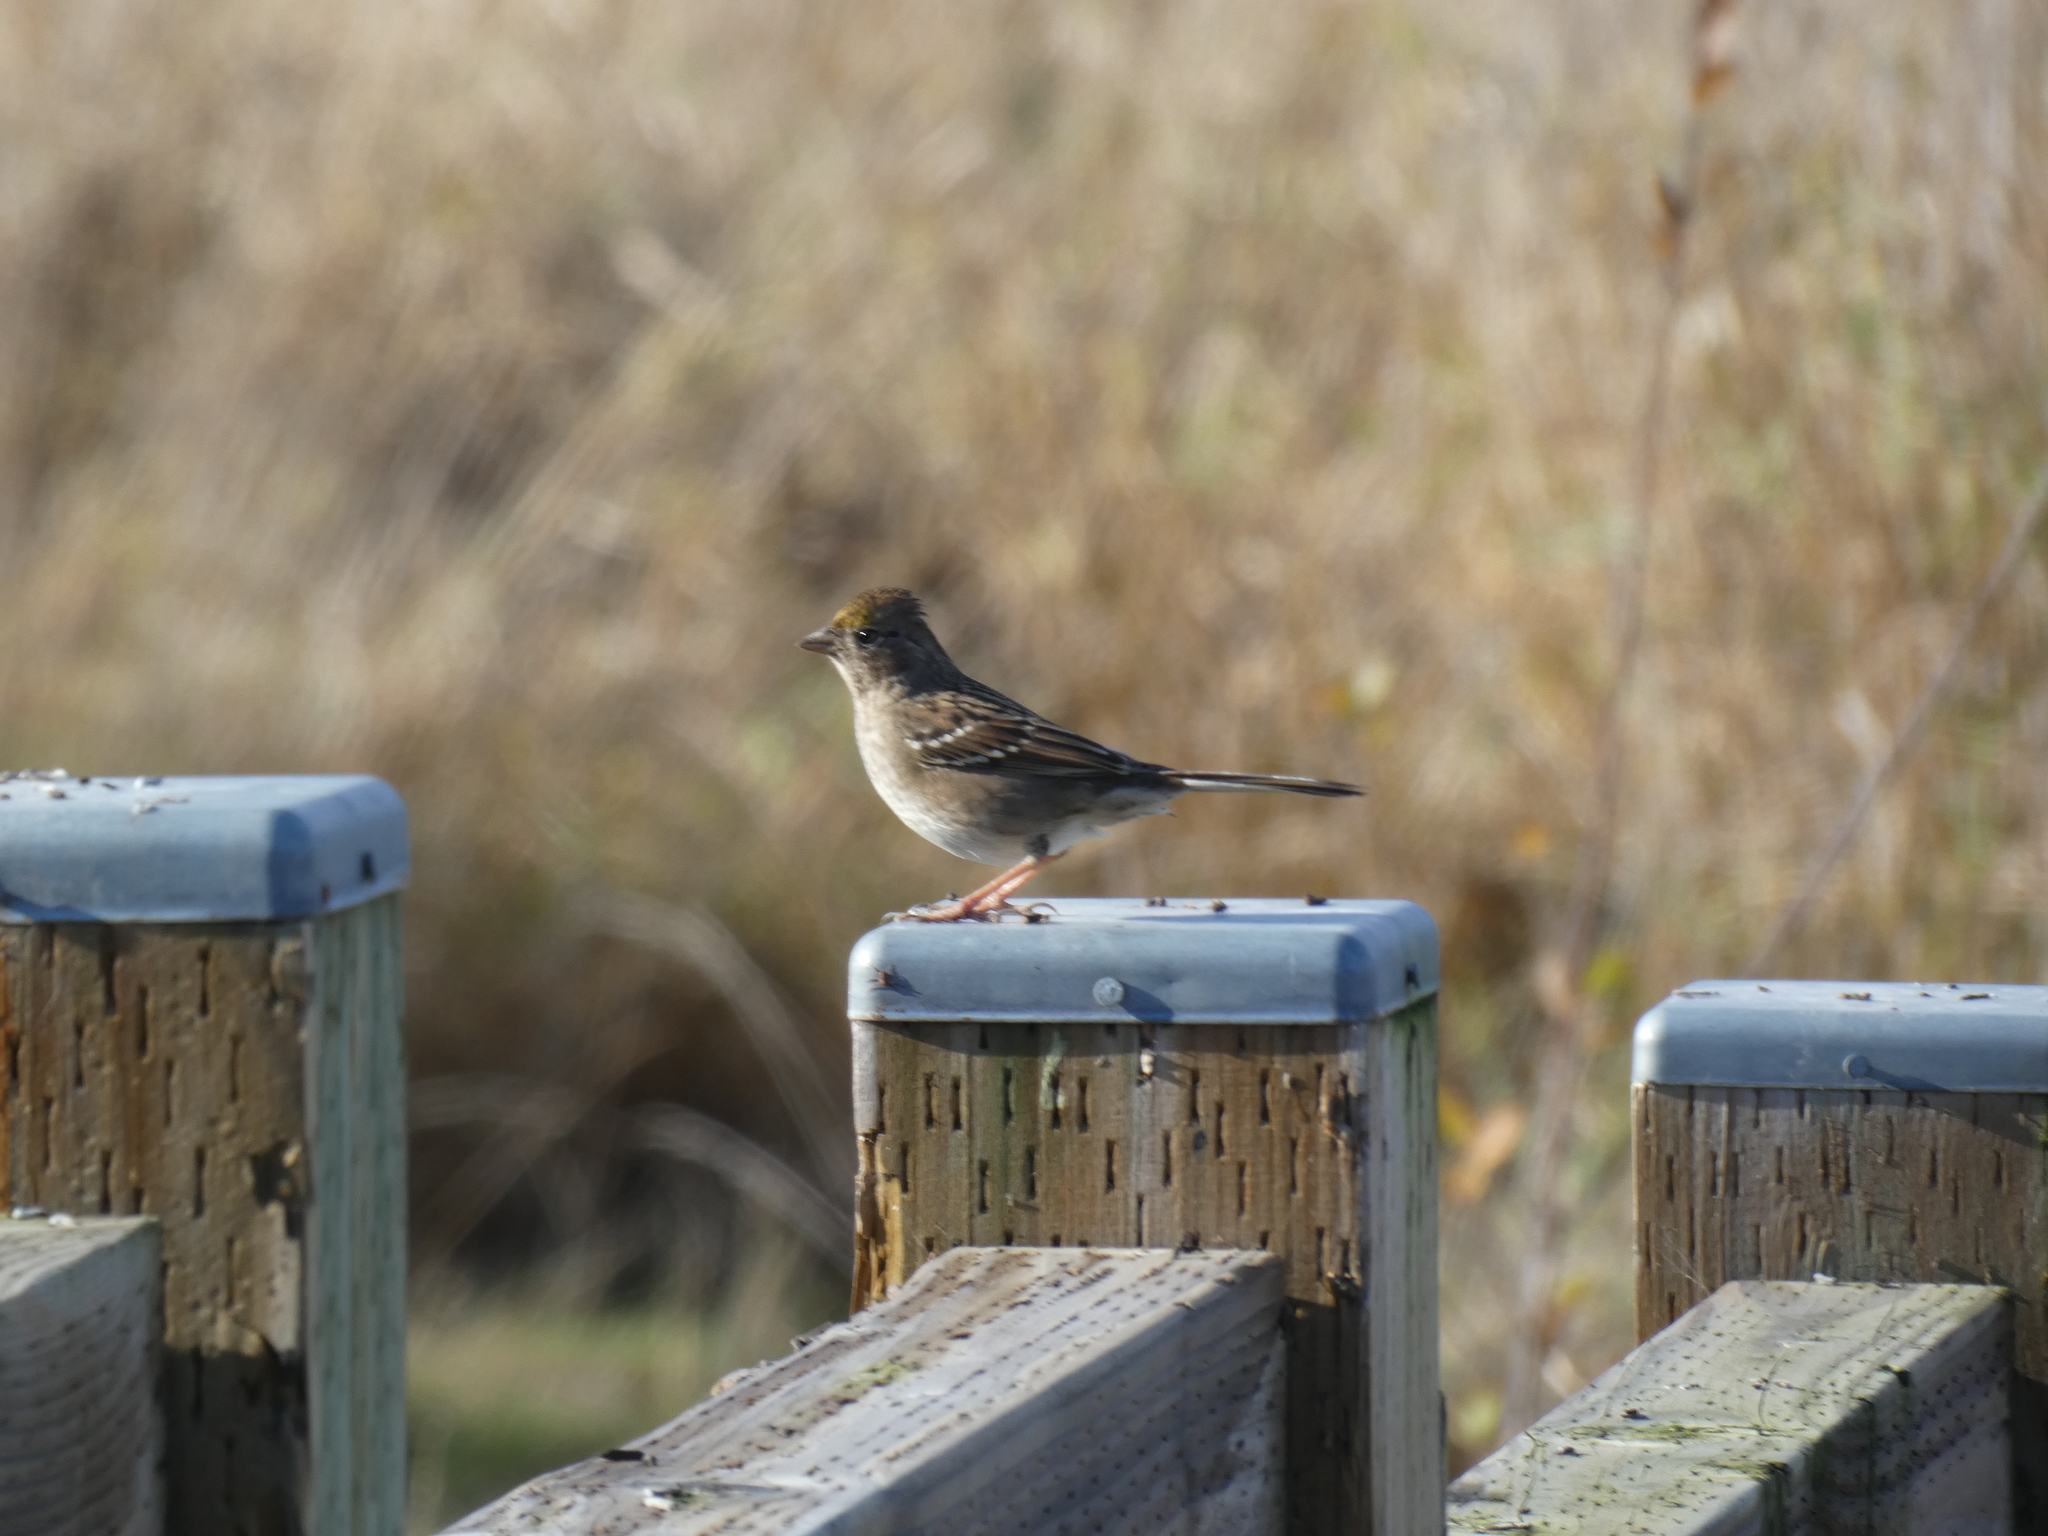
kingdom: Animalia
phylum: Chordata
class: Aves
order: Passeriformes
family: Passerellidae
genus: Zonotrichia
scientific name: Zonotrichia atricapilla
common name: Golden-crowned sparrow
